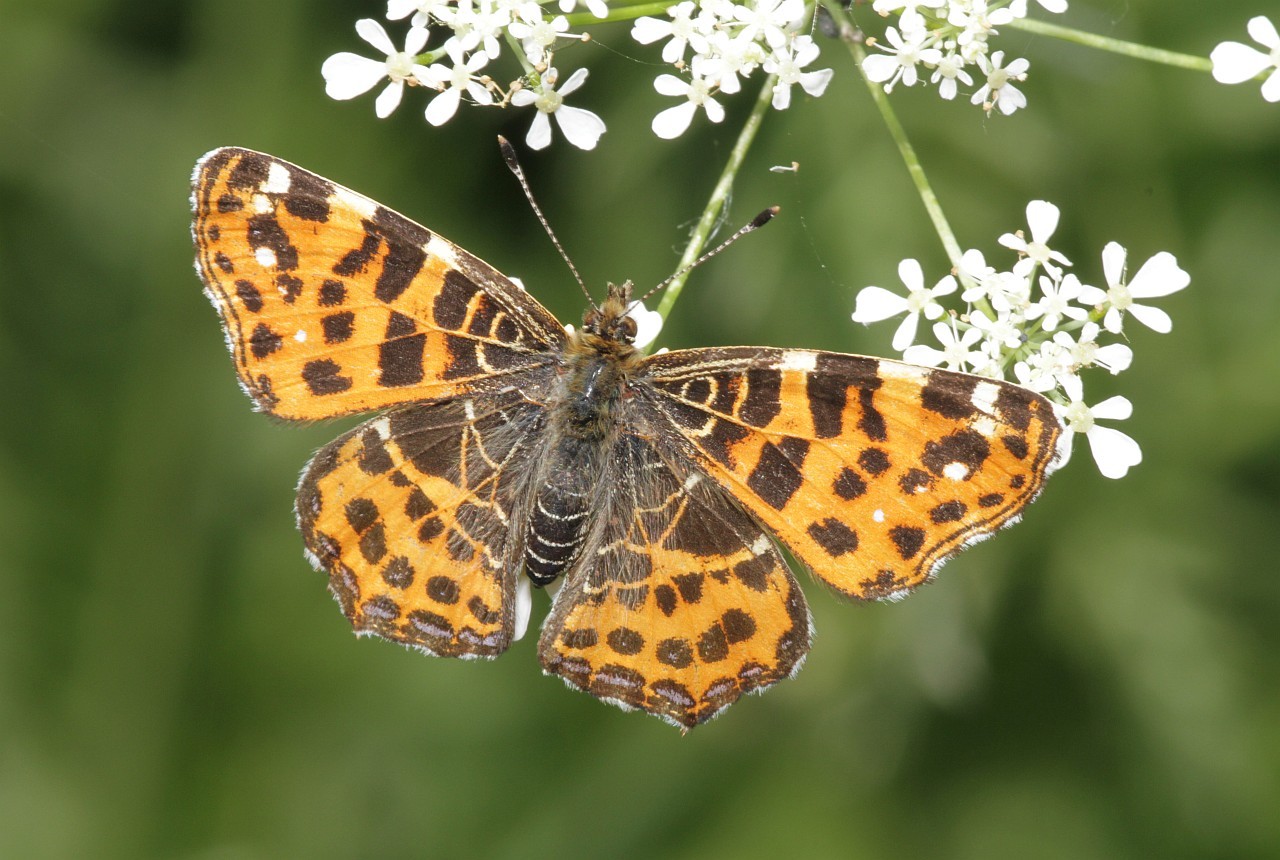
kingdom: Animalia
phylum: Arthropoda
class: Insecta
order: Lepidoptera
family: Nymphalidae
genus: Araschnia
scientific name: Araschnia levana
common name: Map butterfly
